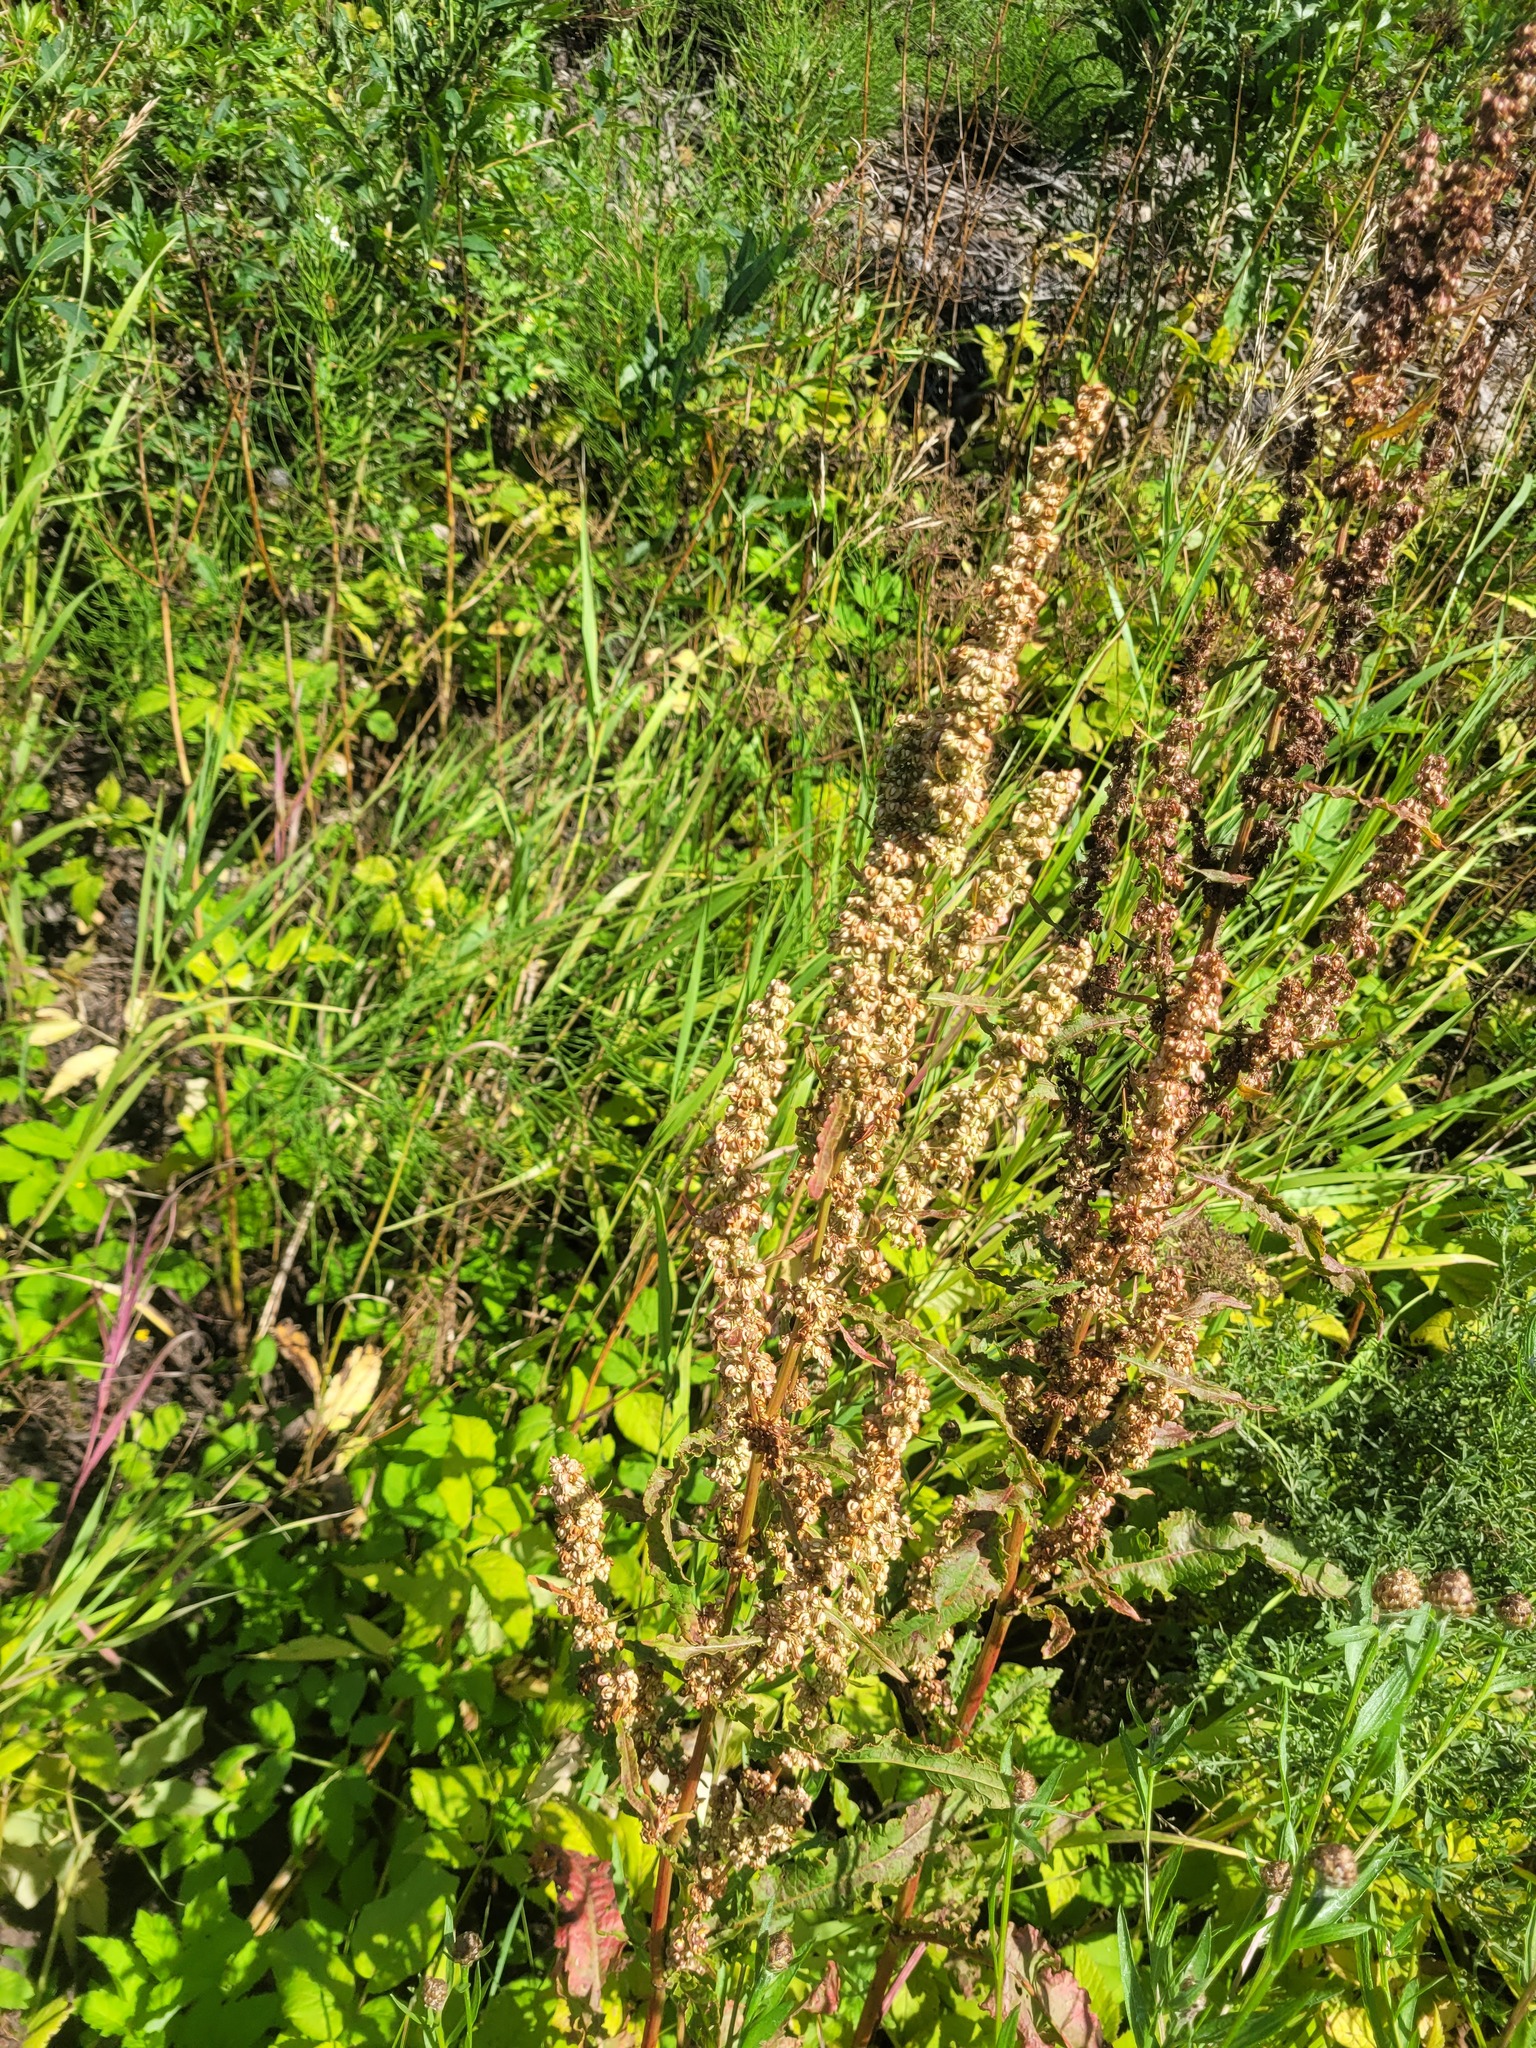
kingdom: Plantae
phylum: Tracheophyta
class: Magnoliopsida
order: Caryophyllales
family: Polygonaceae
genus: Rumex
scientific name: Rumex crispus
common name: Curled dock
